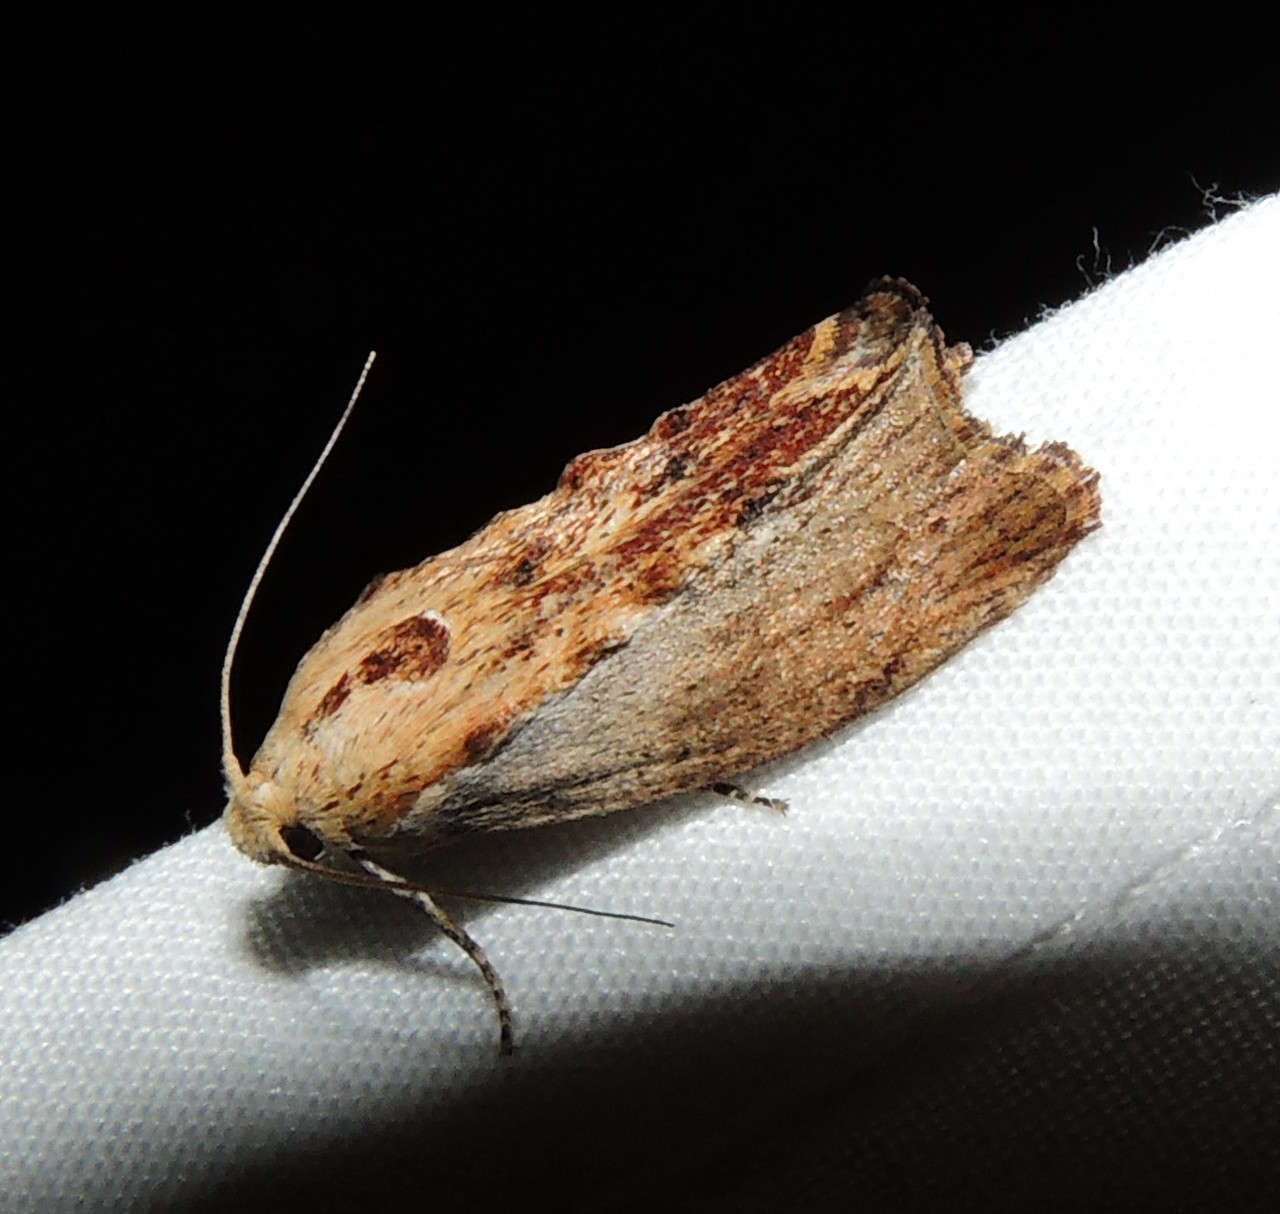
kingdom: Animalia
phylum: Arthropoda
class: Insecta
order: Lepidoptera
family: Pyralidae
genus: Galleria
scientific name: Galleria mellonella
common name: Greater wax moth
